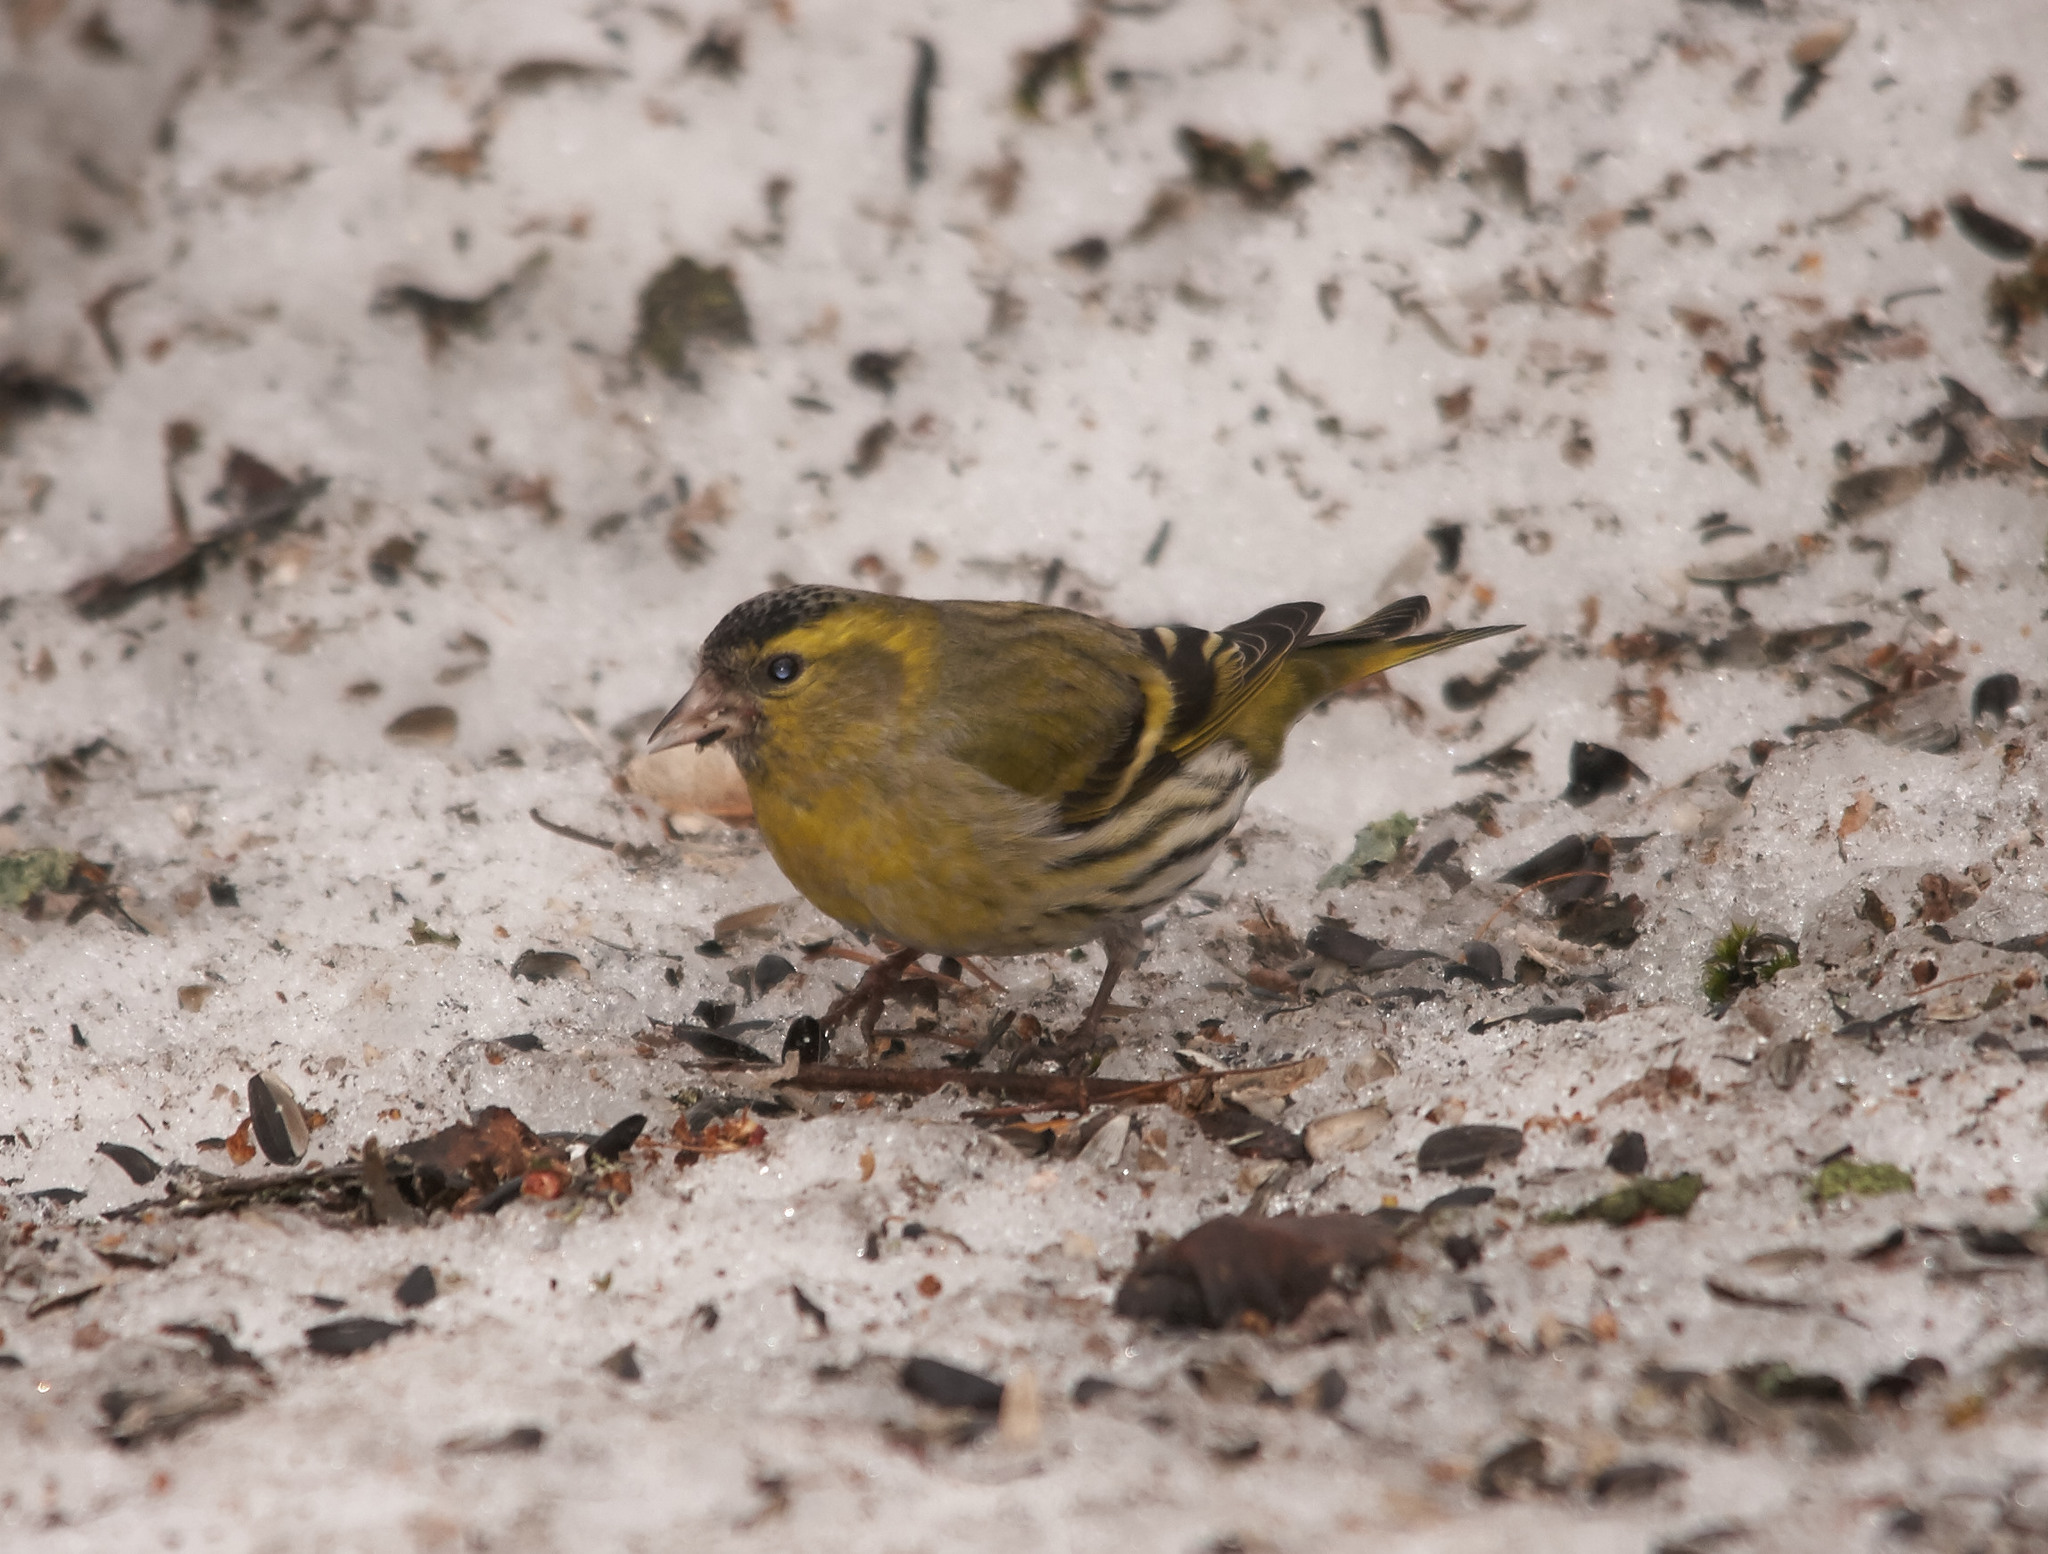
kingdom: Animalia
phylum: Chordata
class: Aves
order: Passeriformes
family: Fringillidae
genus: Spinus
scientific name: Spinus spinus
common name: Eurasian siskin
